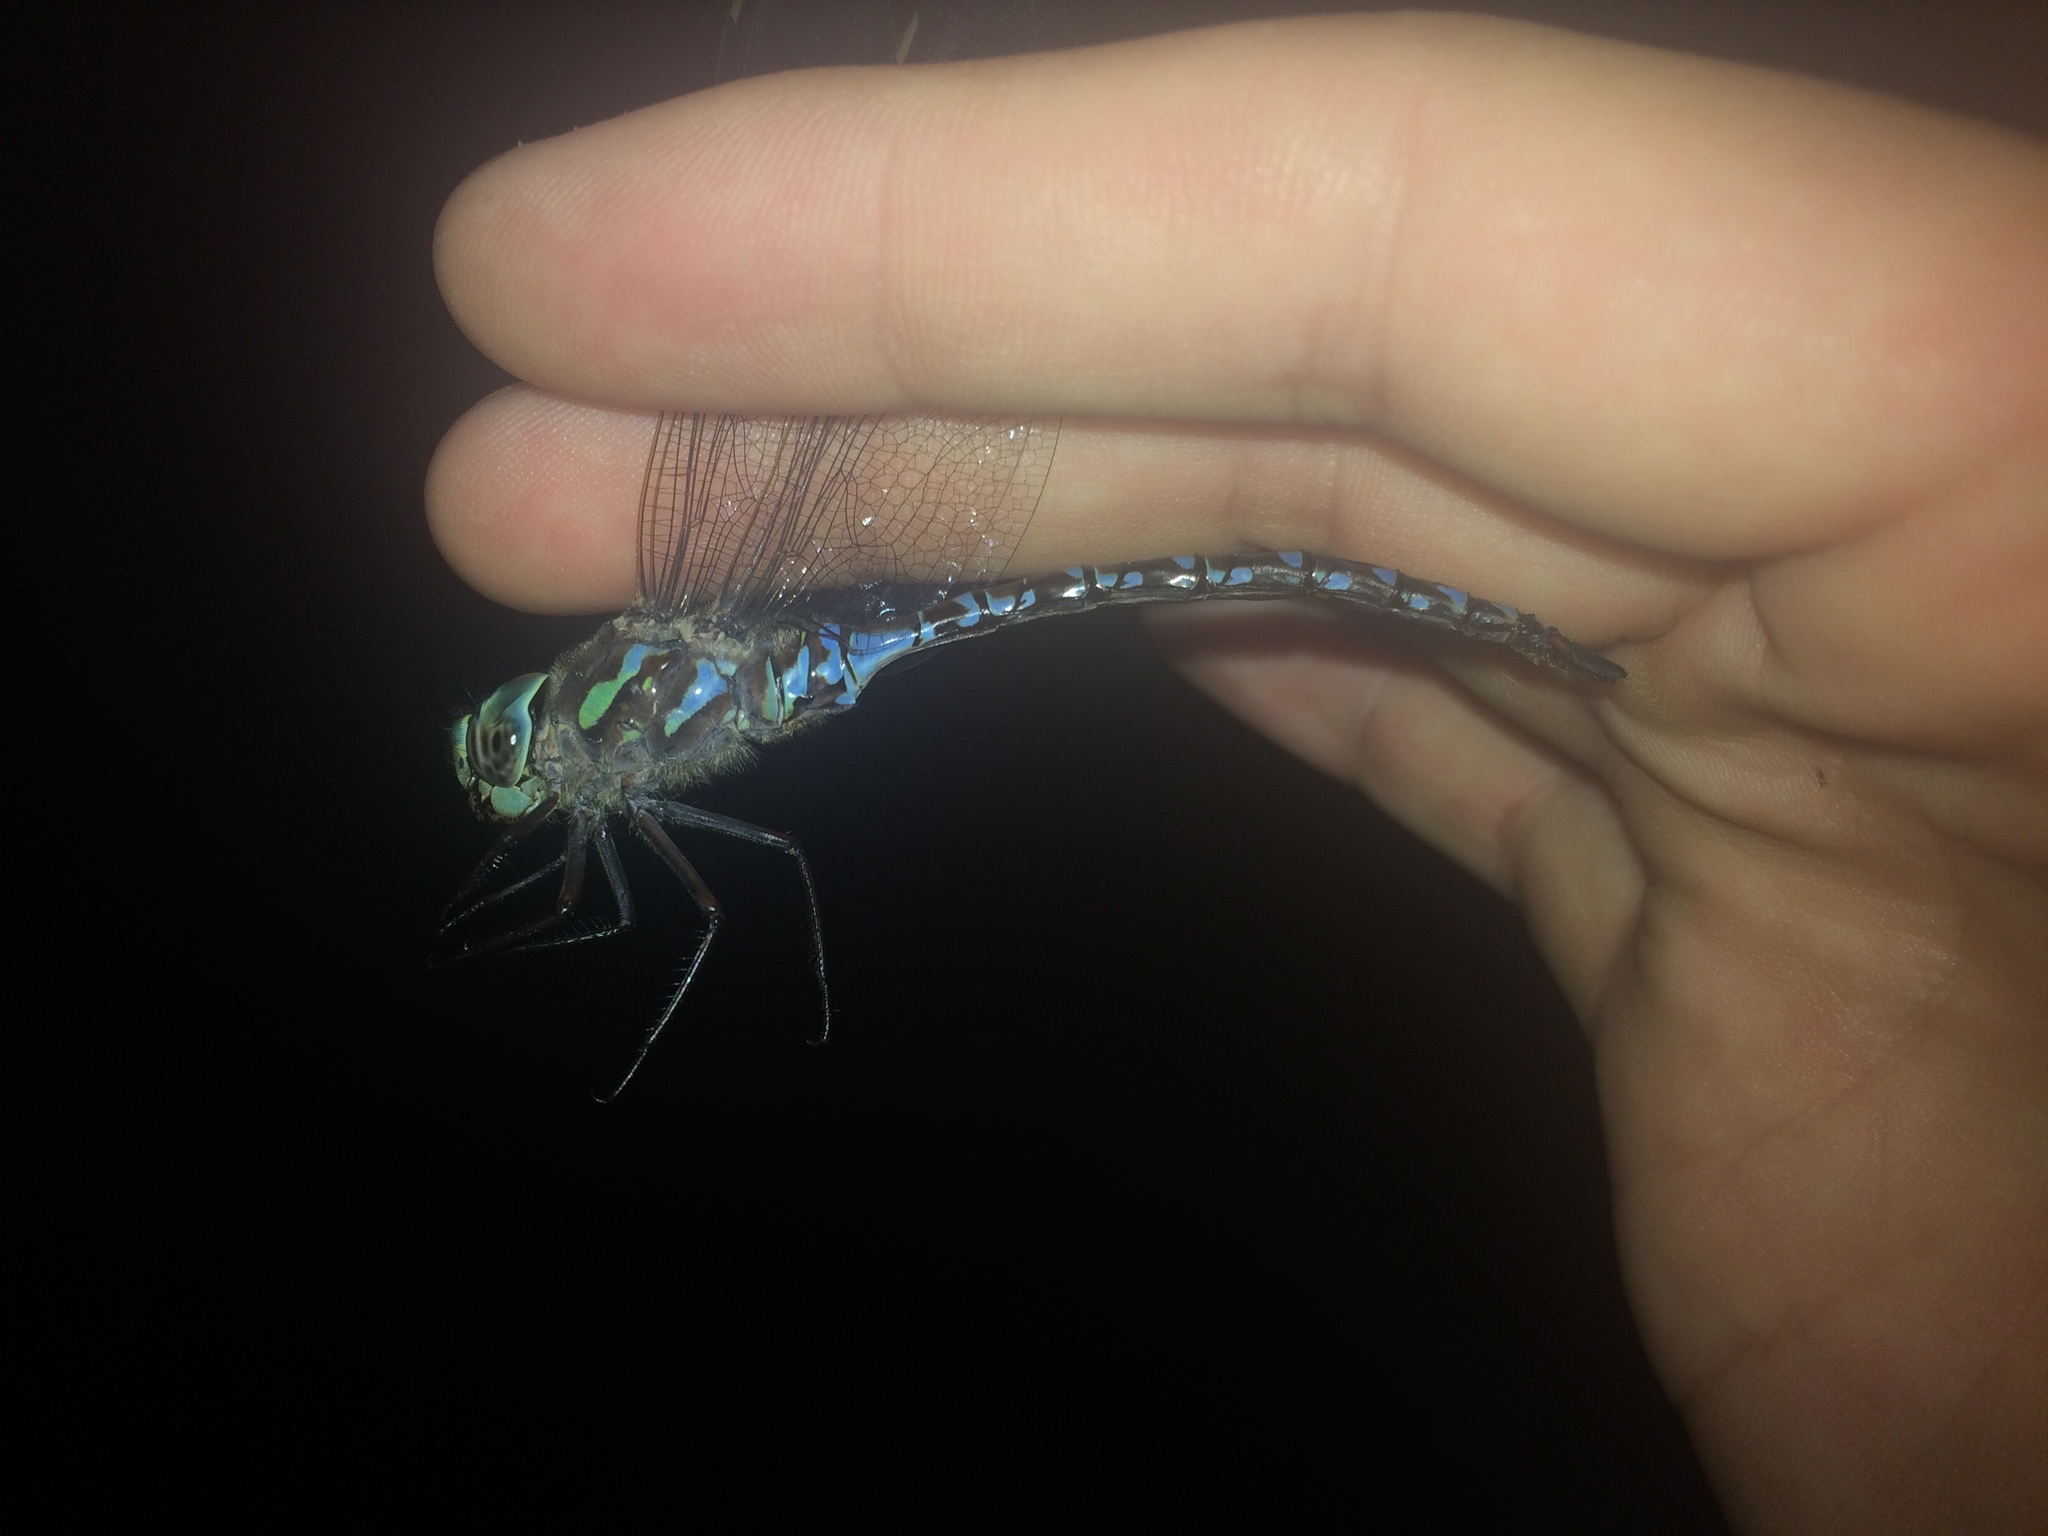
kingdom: Animalia
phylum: Arthropoda
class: Insecta
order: Odonata
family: Aeshnidae
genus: Aeshna
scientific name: Aeshna canadensis
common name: Canada darner
